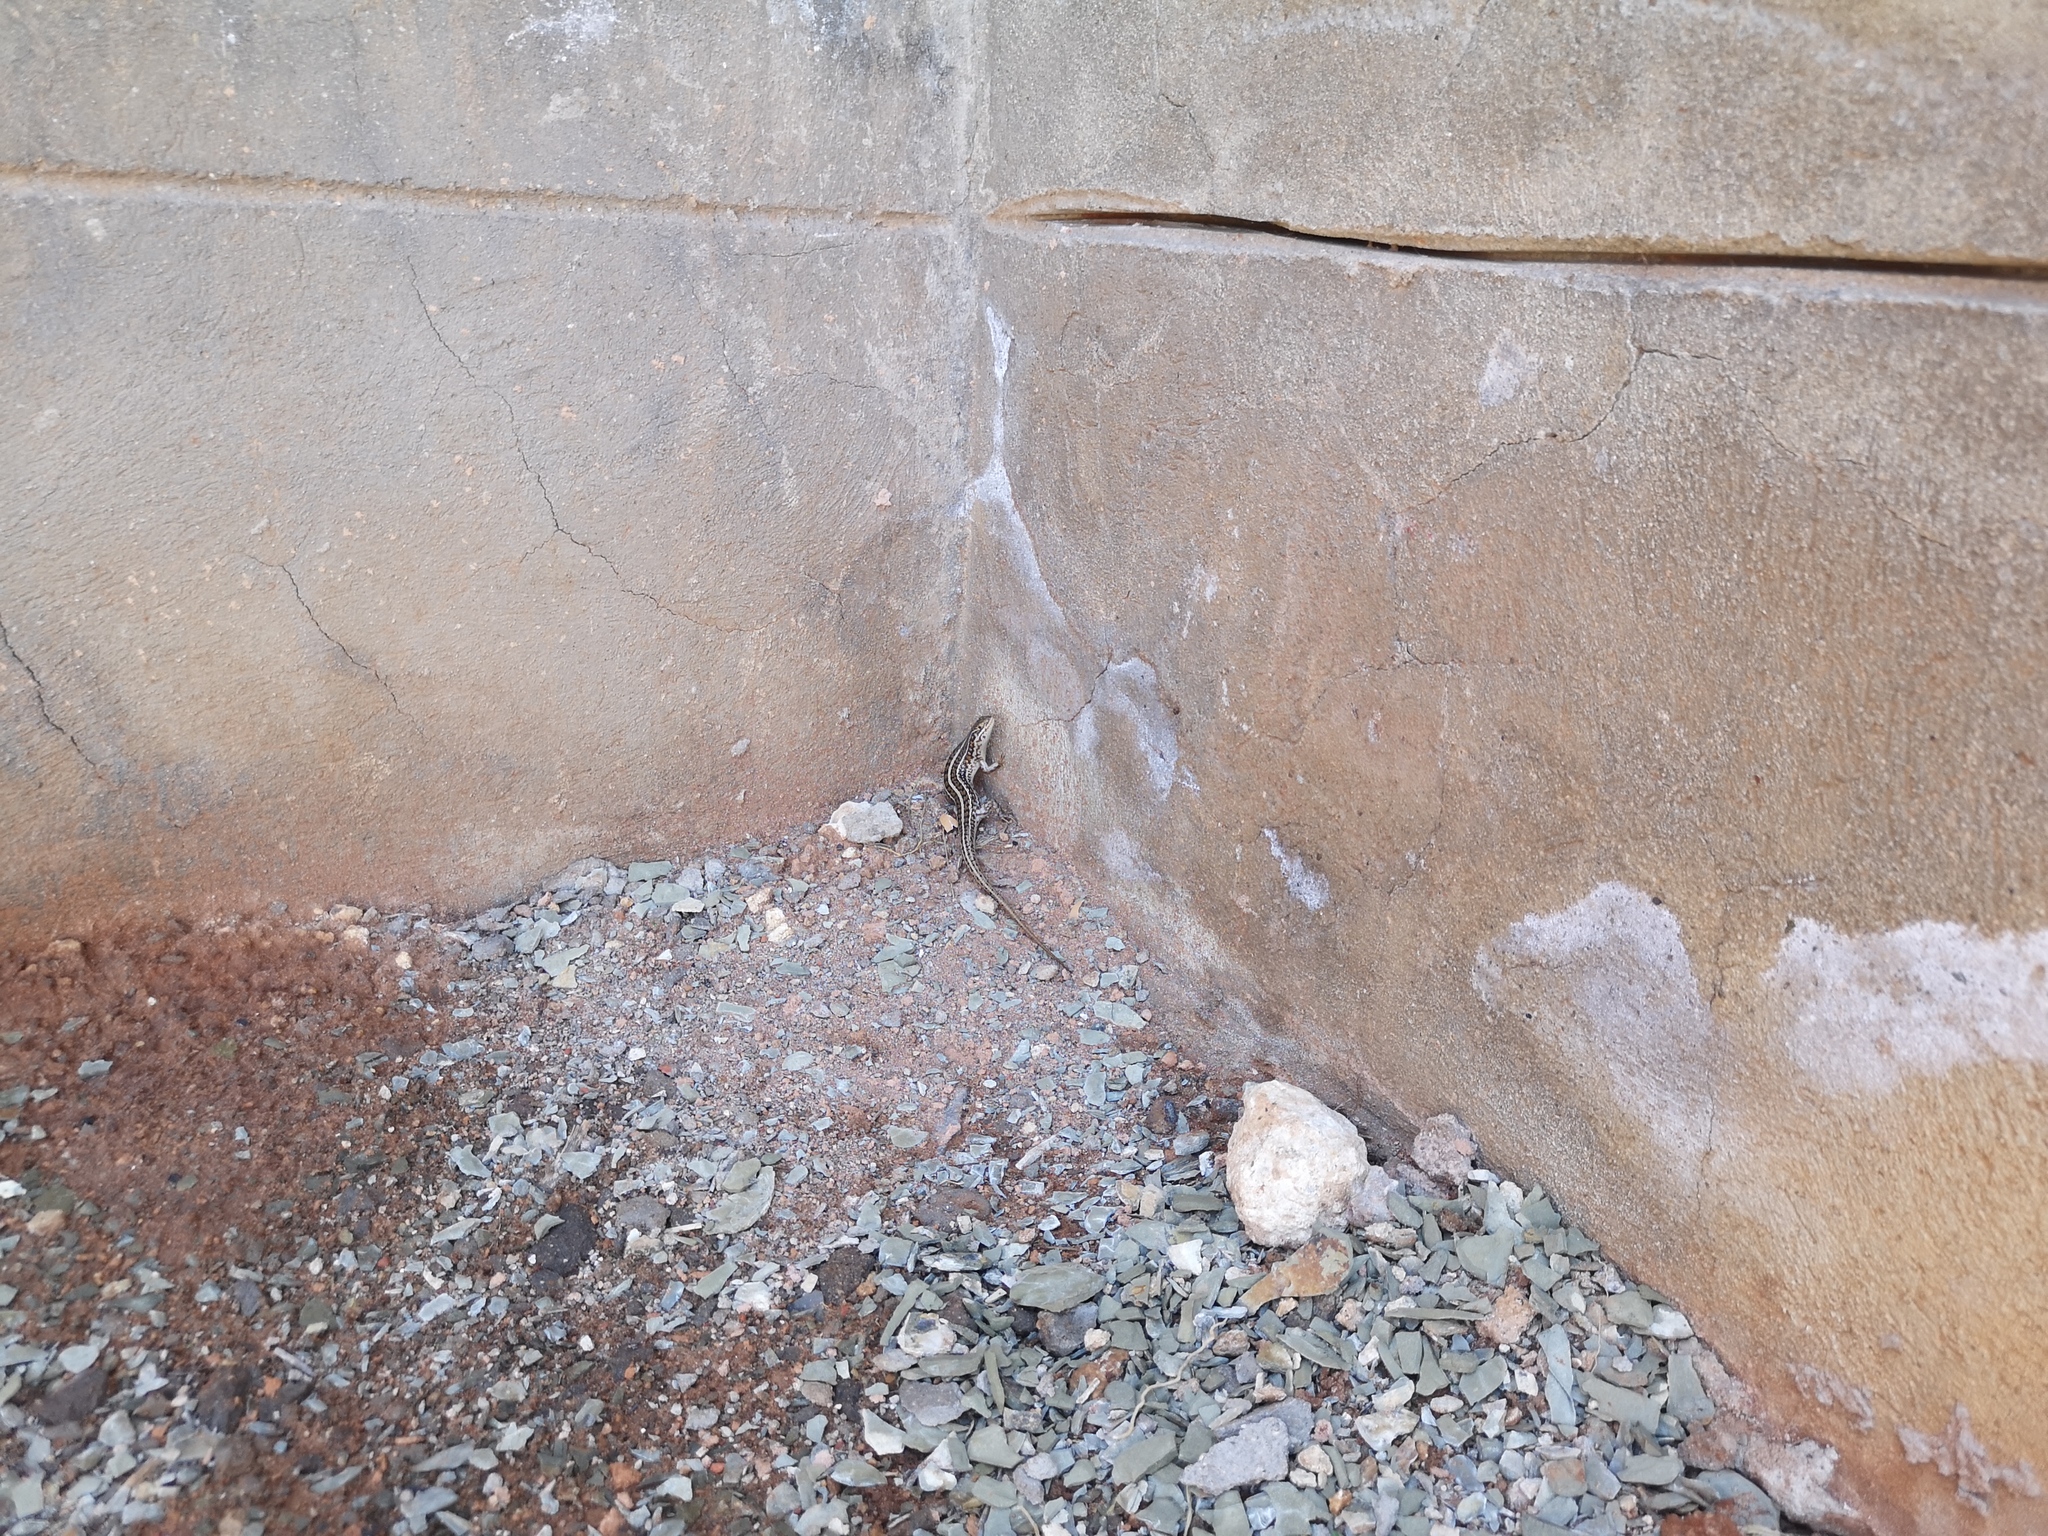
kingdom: Animalia
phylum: Chordata
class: Squamata
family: Scincidae
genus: Trachylepis
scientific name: Trachylepis capensis
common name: Cape skink
